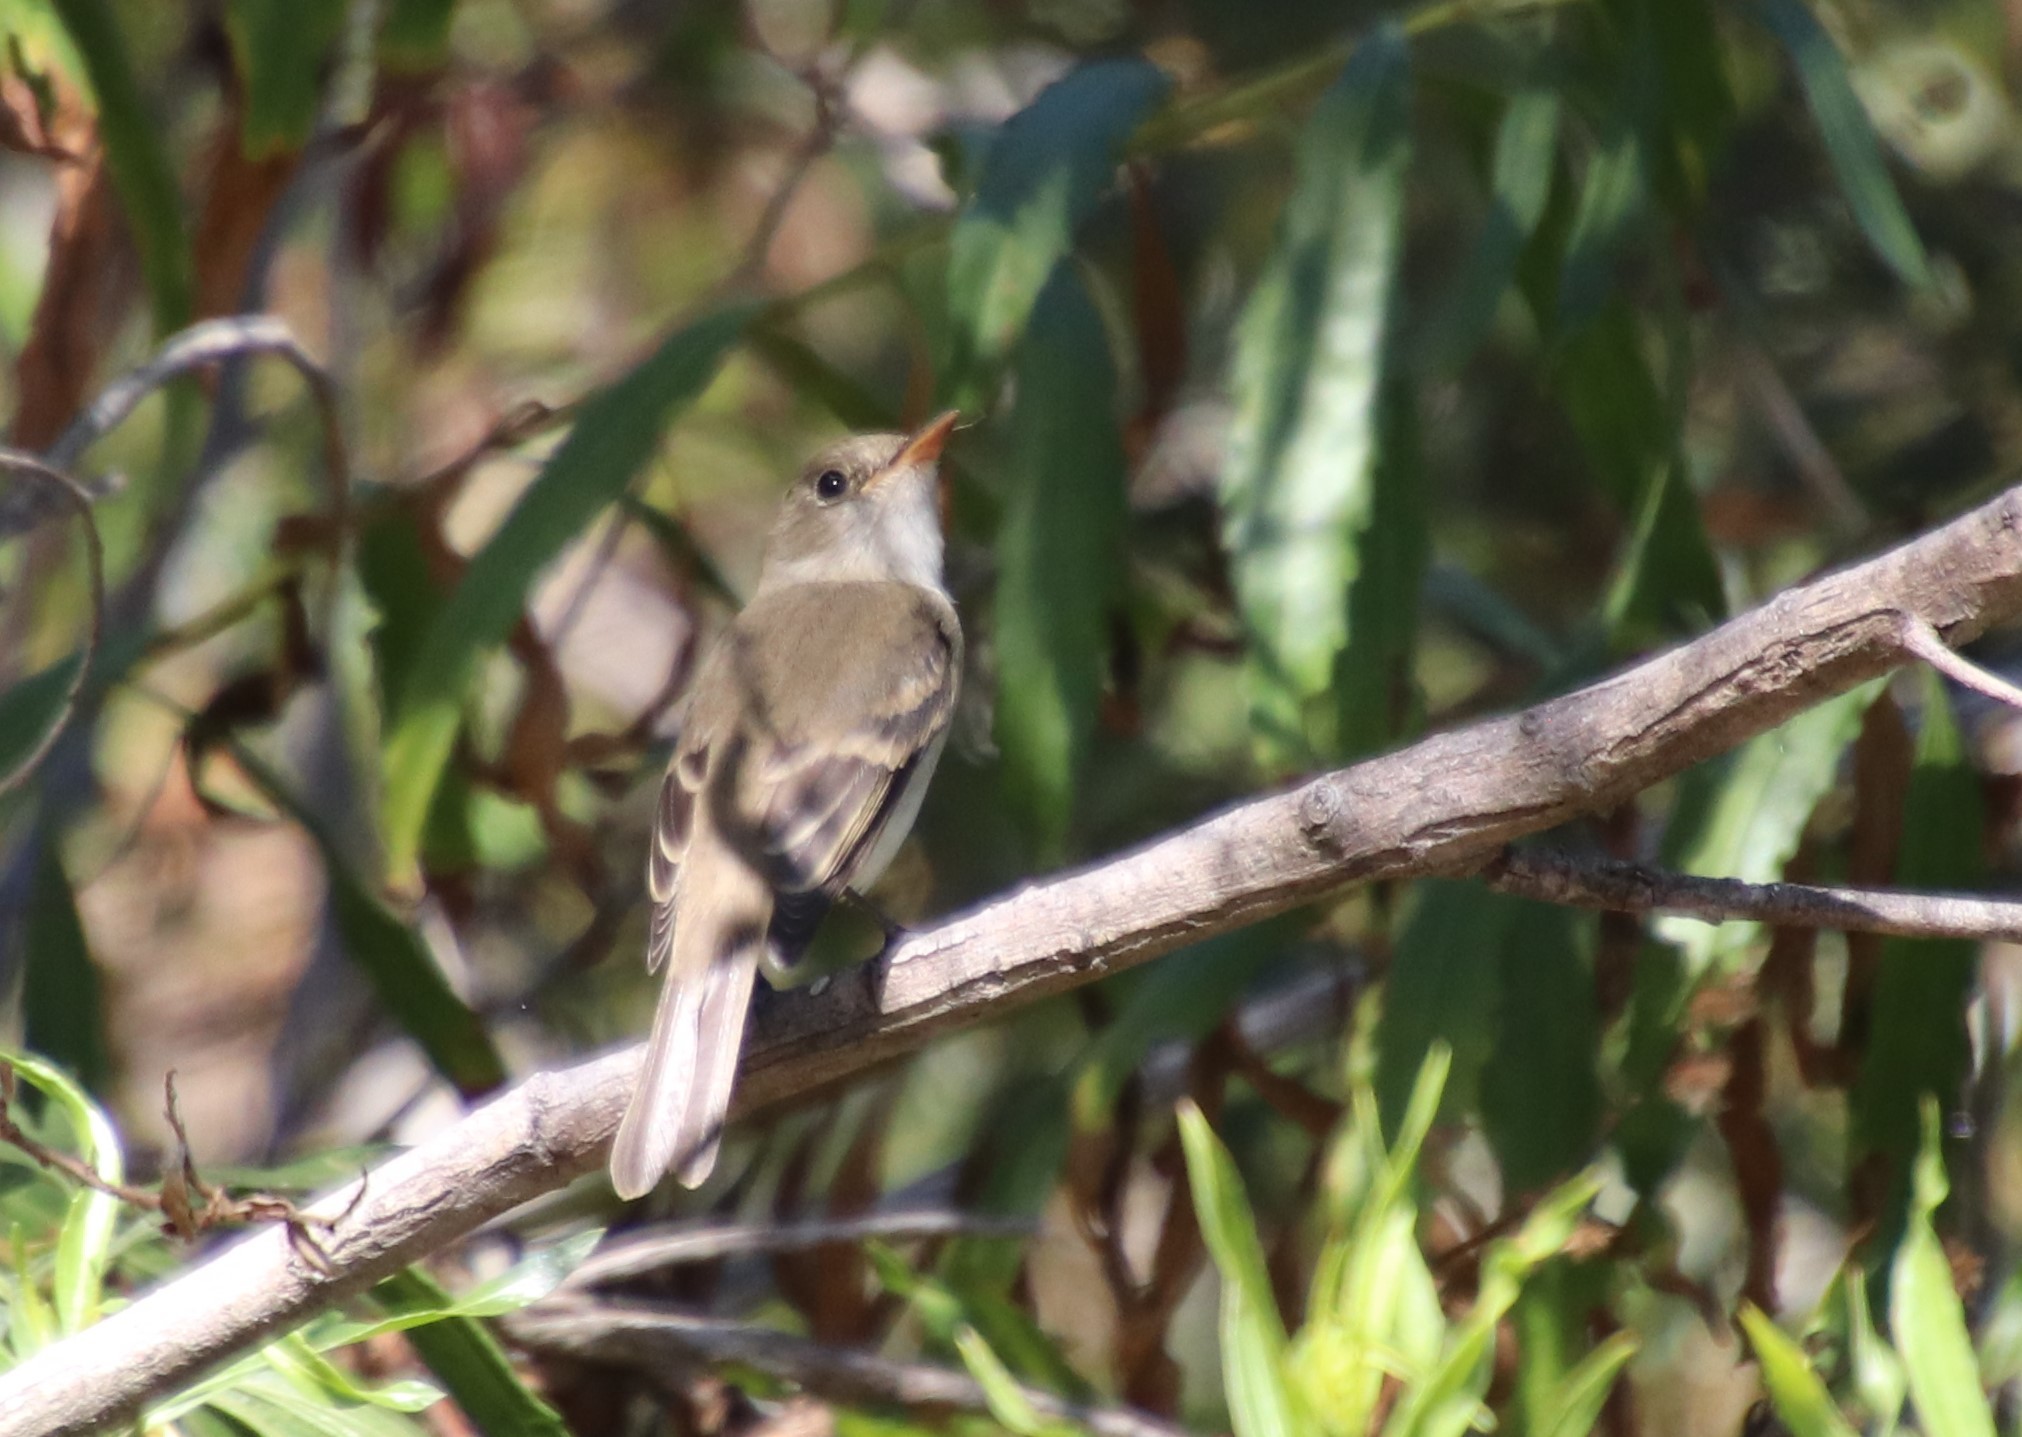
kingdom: Animalia
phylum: Chordata
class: Aves
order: Passeriformes
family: Tyrannidae
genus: Empidonax
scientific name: Empidonax traillii
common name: Willow flycatcher
